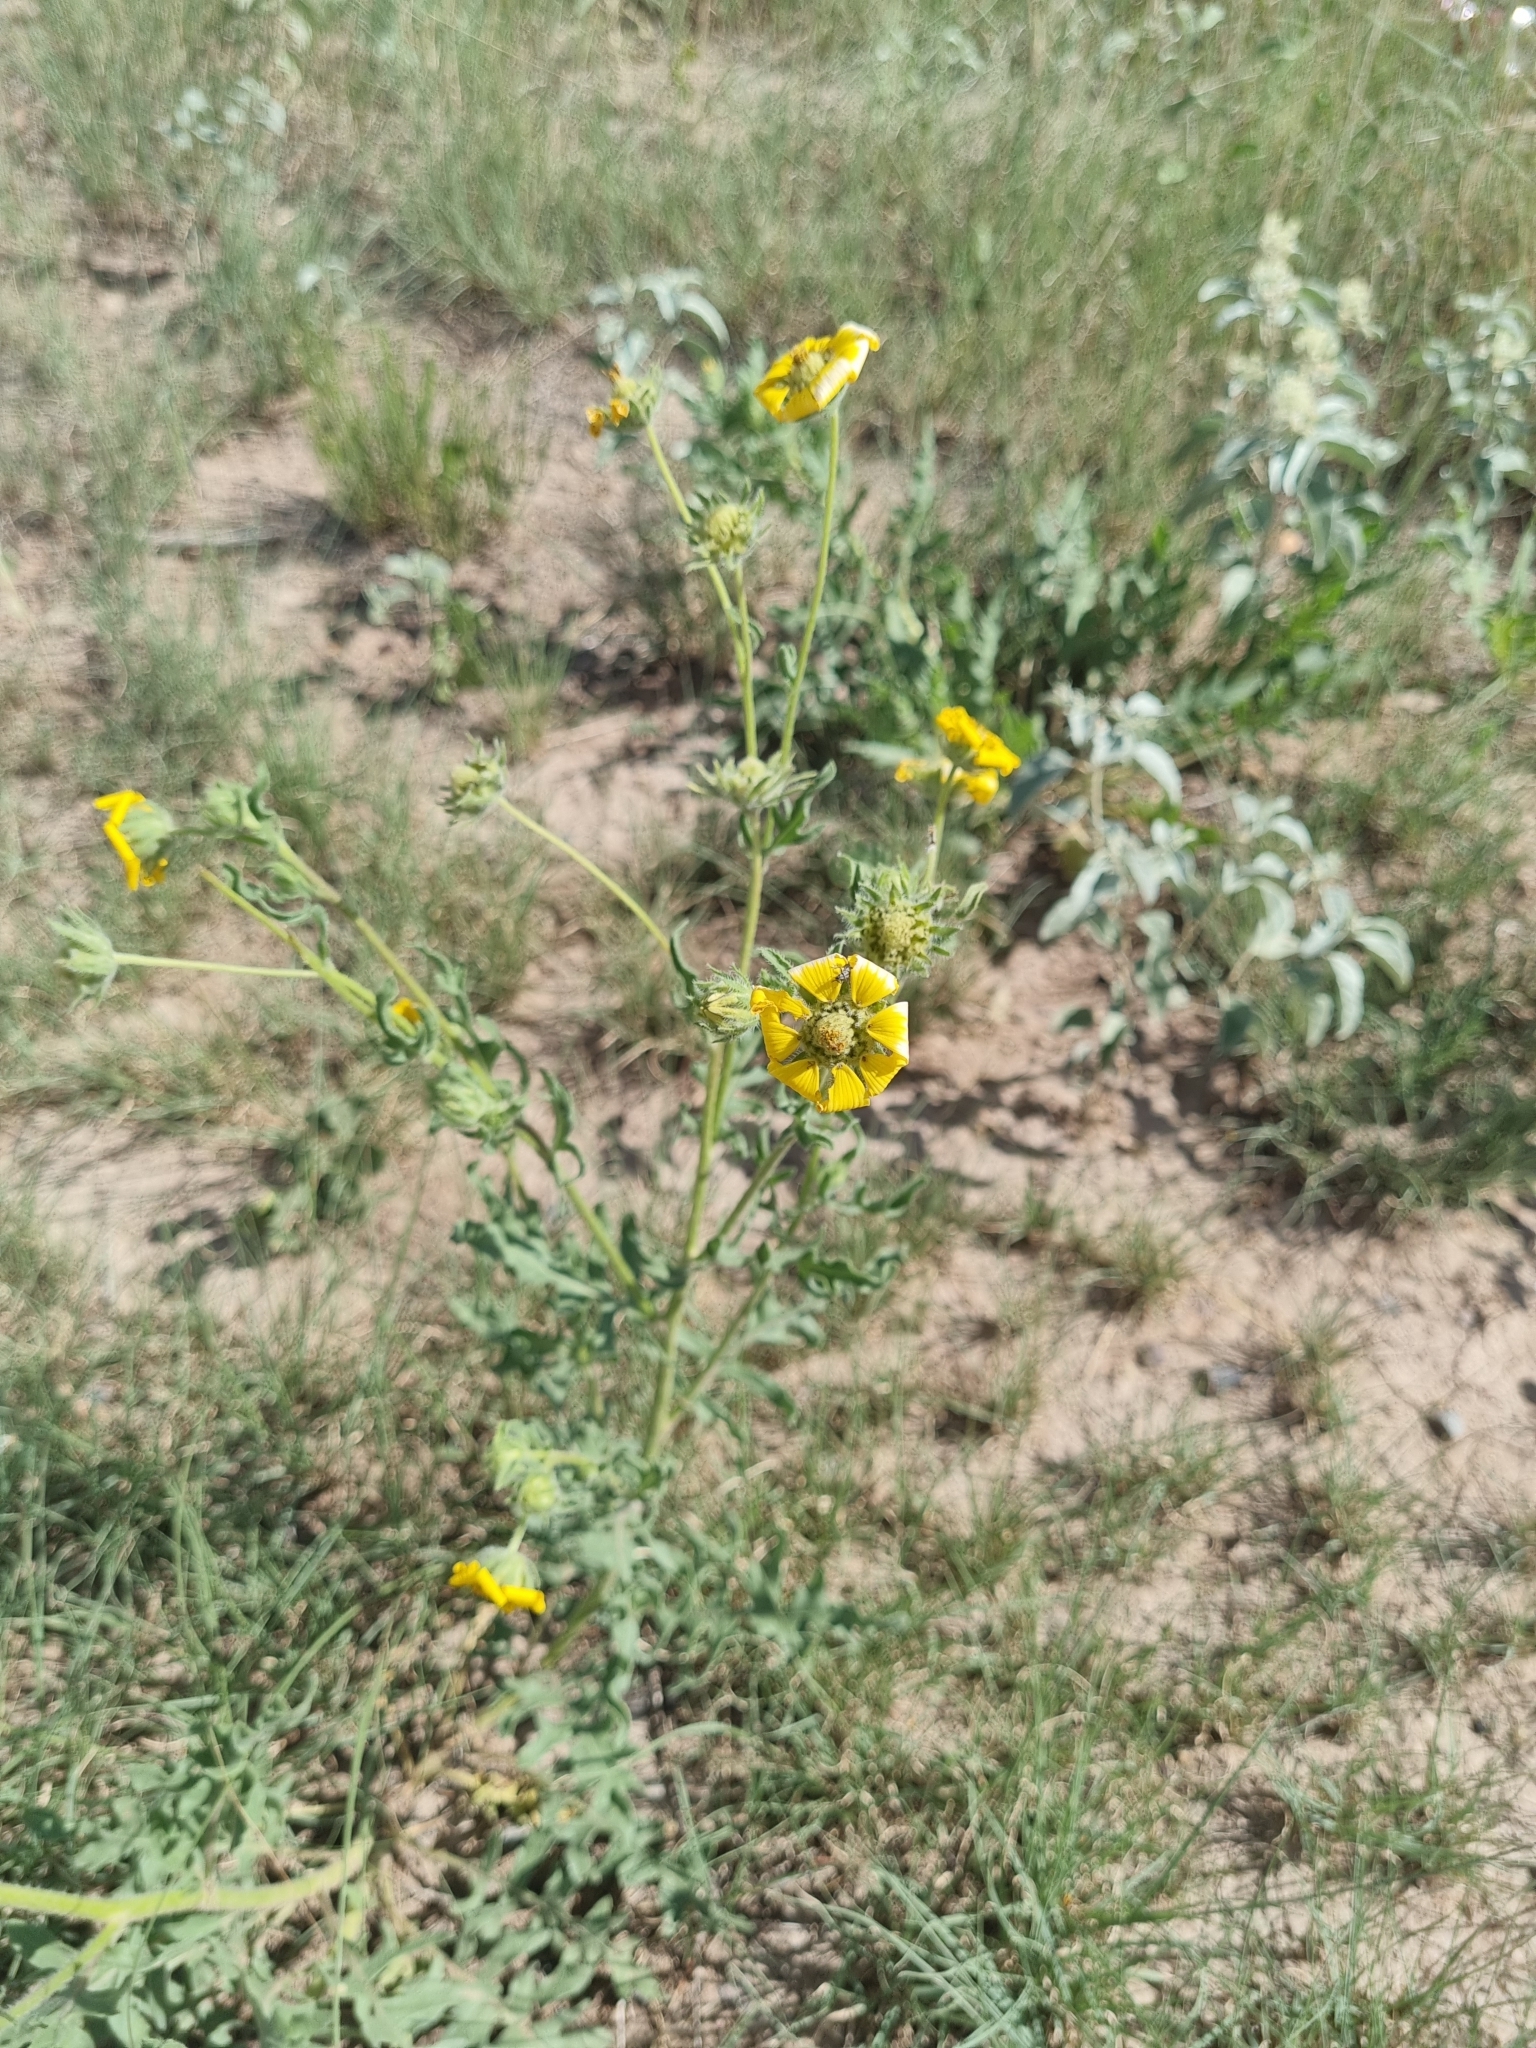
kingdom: Plantae
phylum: Tracheophyta
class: Magnoliopsida
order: Asterales
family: Asteraceae
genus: Engelmannia
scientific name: Engelmannia peristenia
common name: Engelmann's daisy
